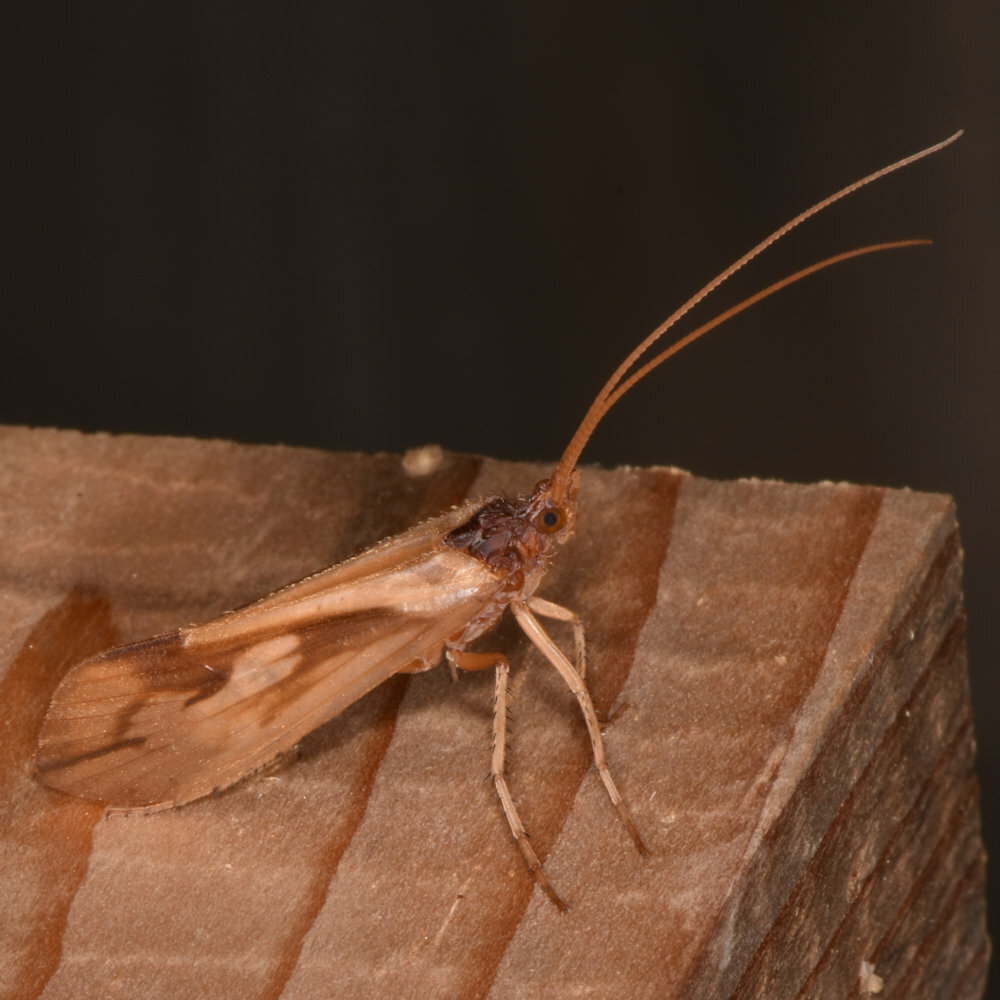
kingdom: Animalia
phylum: Arthropoda
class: Insecta
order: Trichoptera
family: Limnephilidae
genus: Platycentropus
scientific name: Platycentropus radiatus
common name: Chocolate-and-cream sedge
